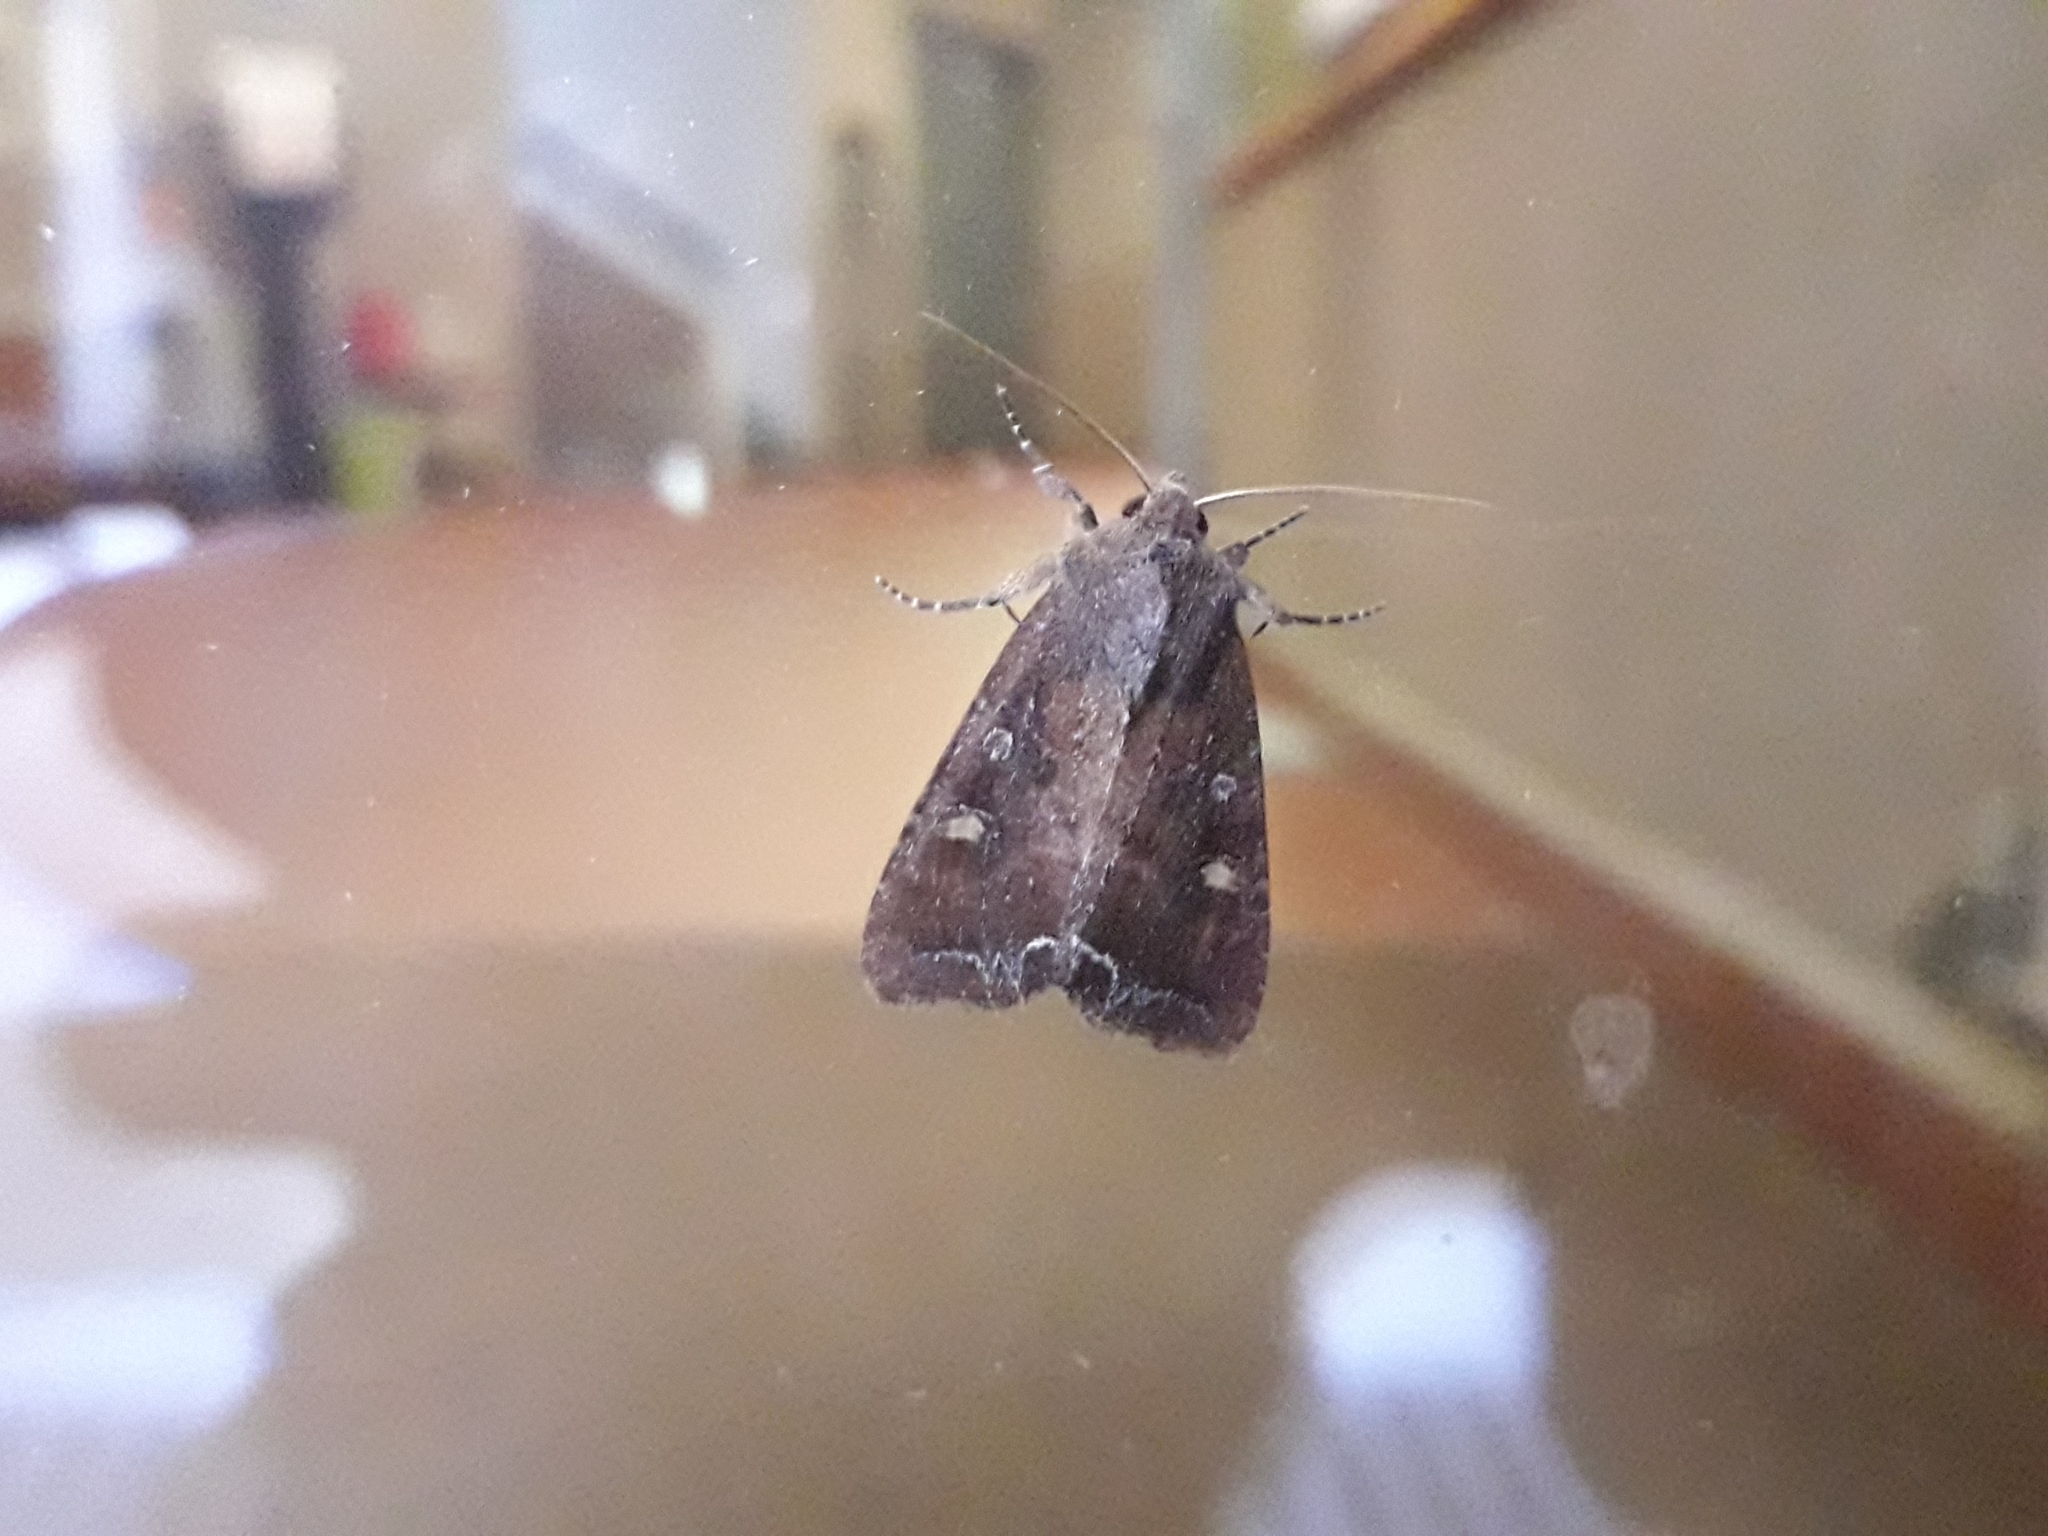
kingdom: Animalia
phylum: Arthropoda
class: Insecta
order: Lepidoptera
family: Noctuidae
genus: Lacanobia
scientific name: Lacanobia oleracea
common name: Bright-line brown-eye
